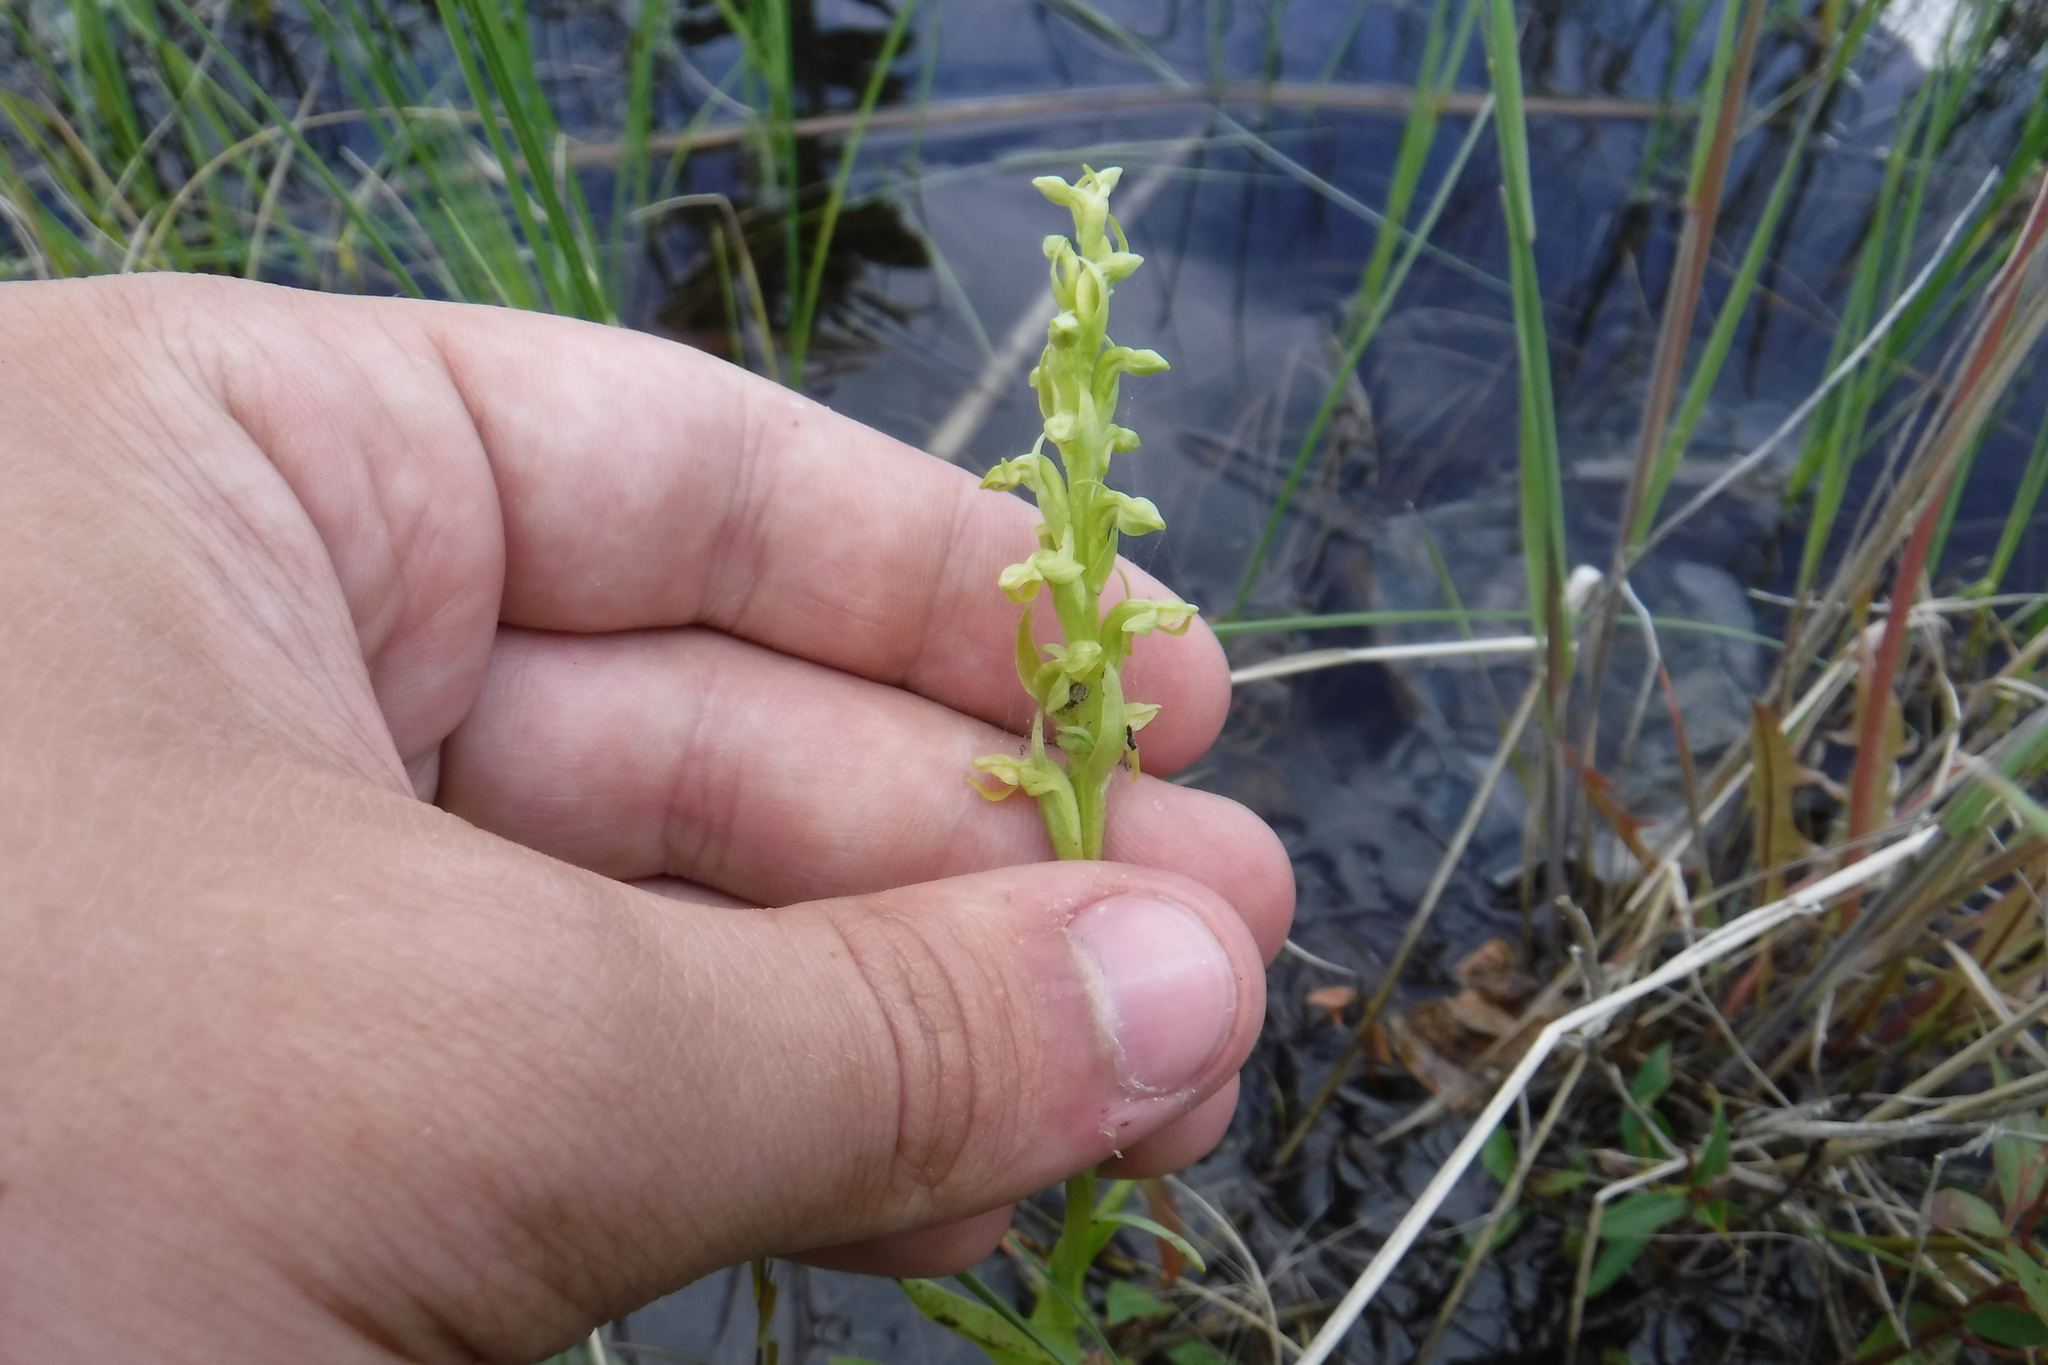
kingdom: Plantae
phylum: Tracheophyta
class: Liliopsida
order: Asparagales
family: Orchidaceae
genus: Platanthera
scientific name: Platanthera aquilonis
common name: Northern green orchid
